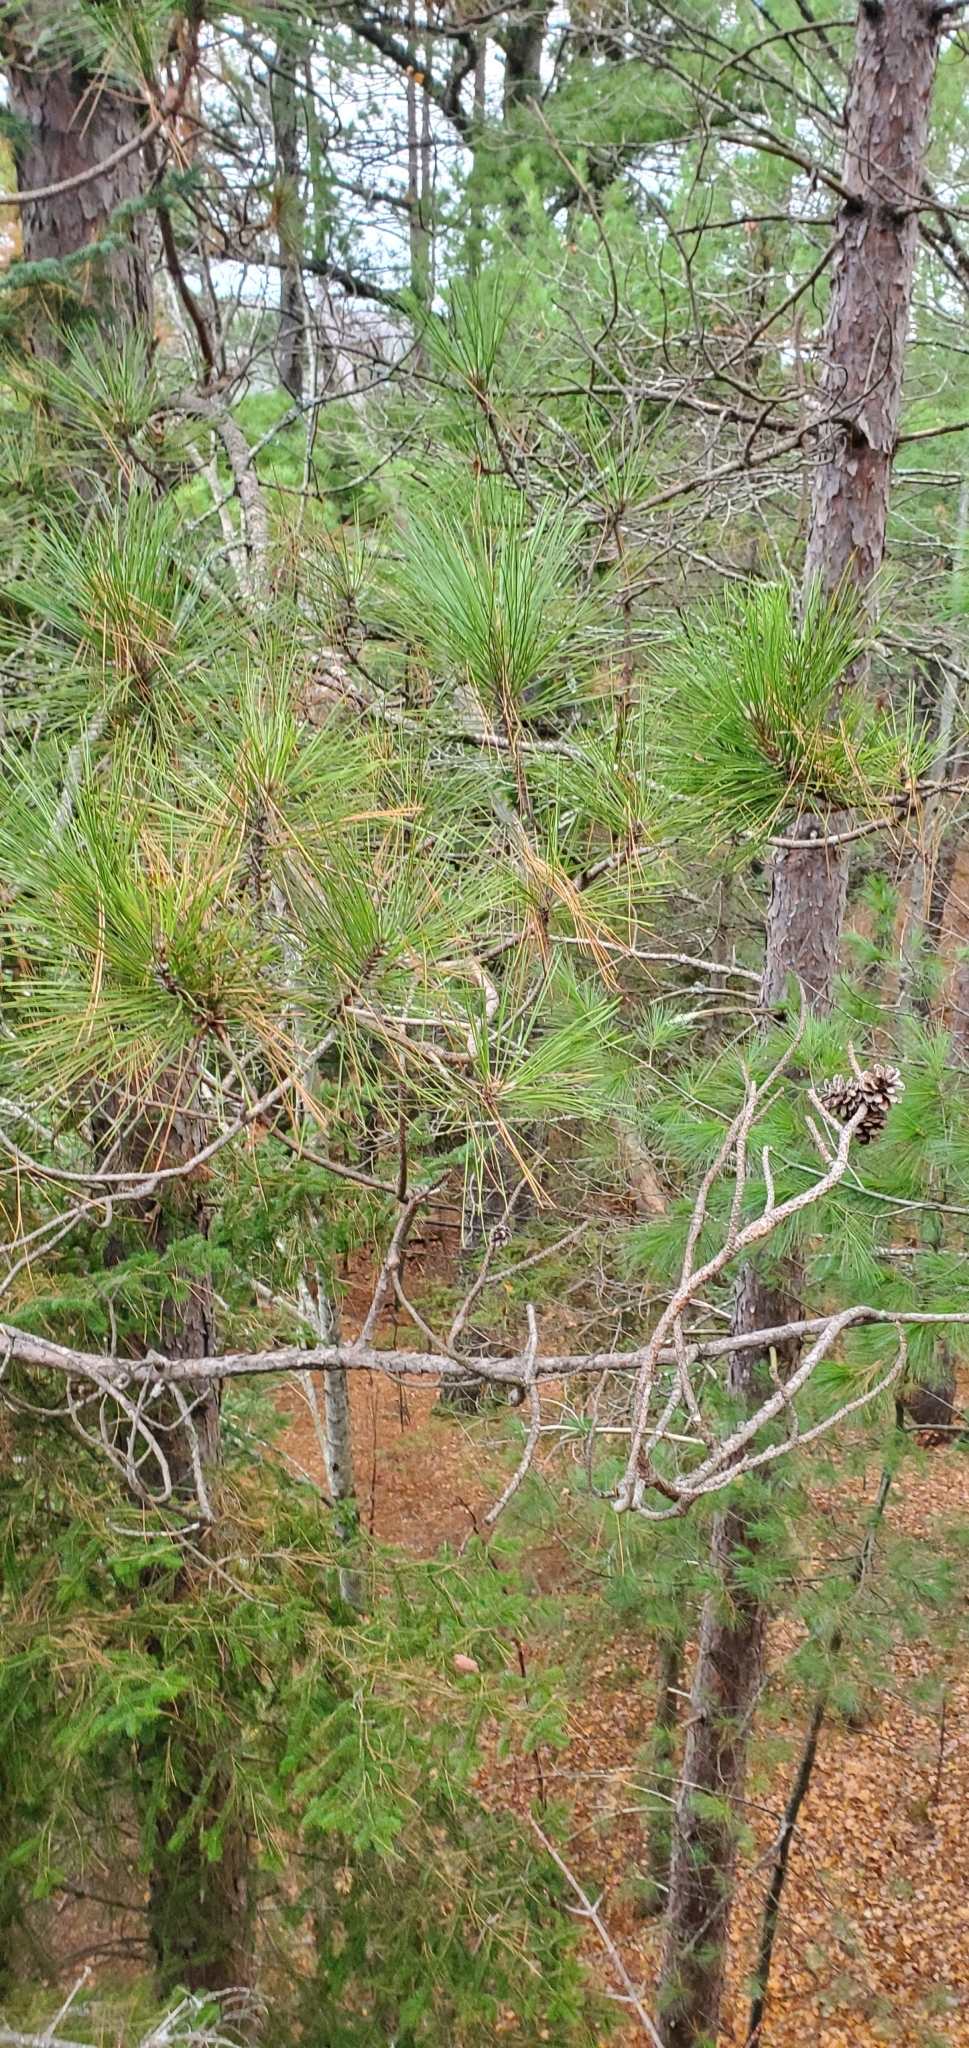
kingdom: Plantae
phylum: Tracheophyta
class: Pinopsida
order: Pinales
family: Pinaceae
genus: Pinus
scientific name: Pinus resinosa
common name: Norway pine
